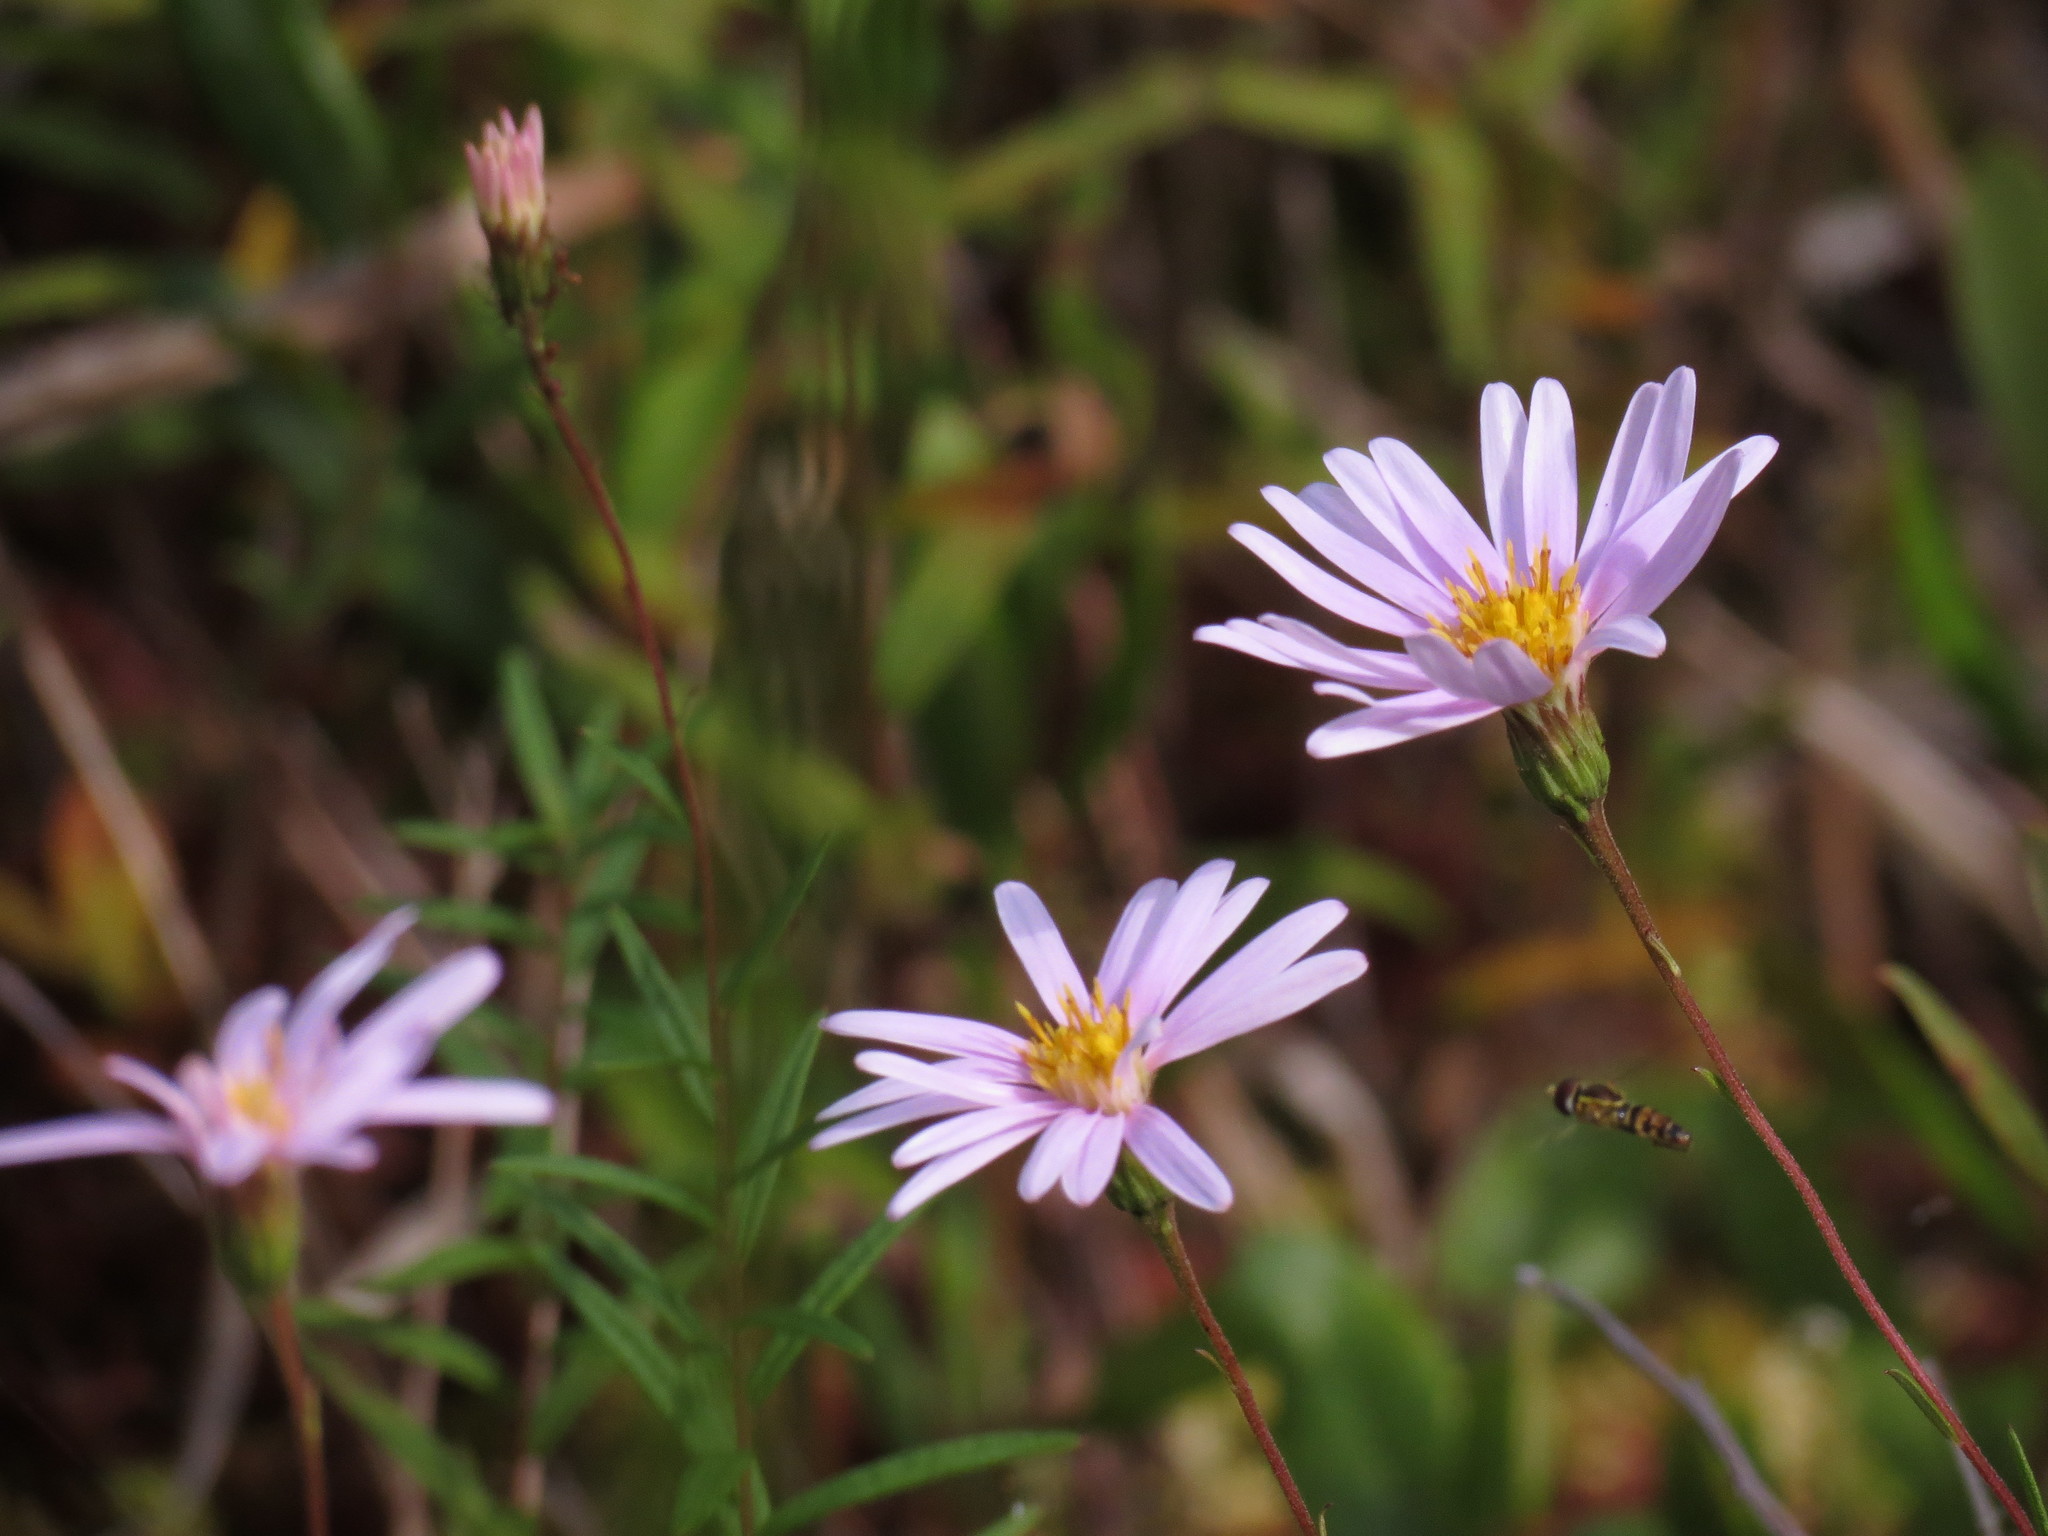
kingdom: Plantae
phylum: Tracheophyta
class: Magnoliopsida
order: Asterales
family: Asteraceae
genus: Oclemena
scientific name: Oclemena nemoralis
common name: Bog aster
